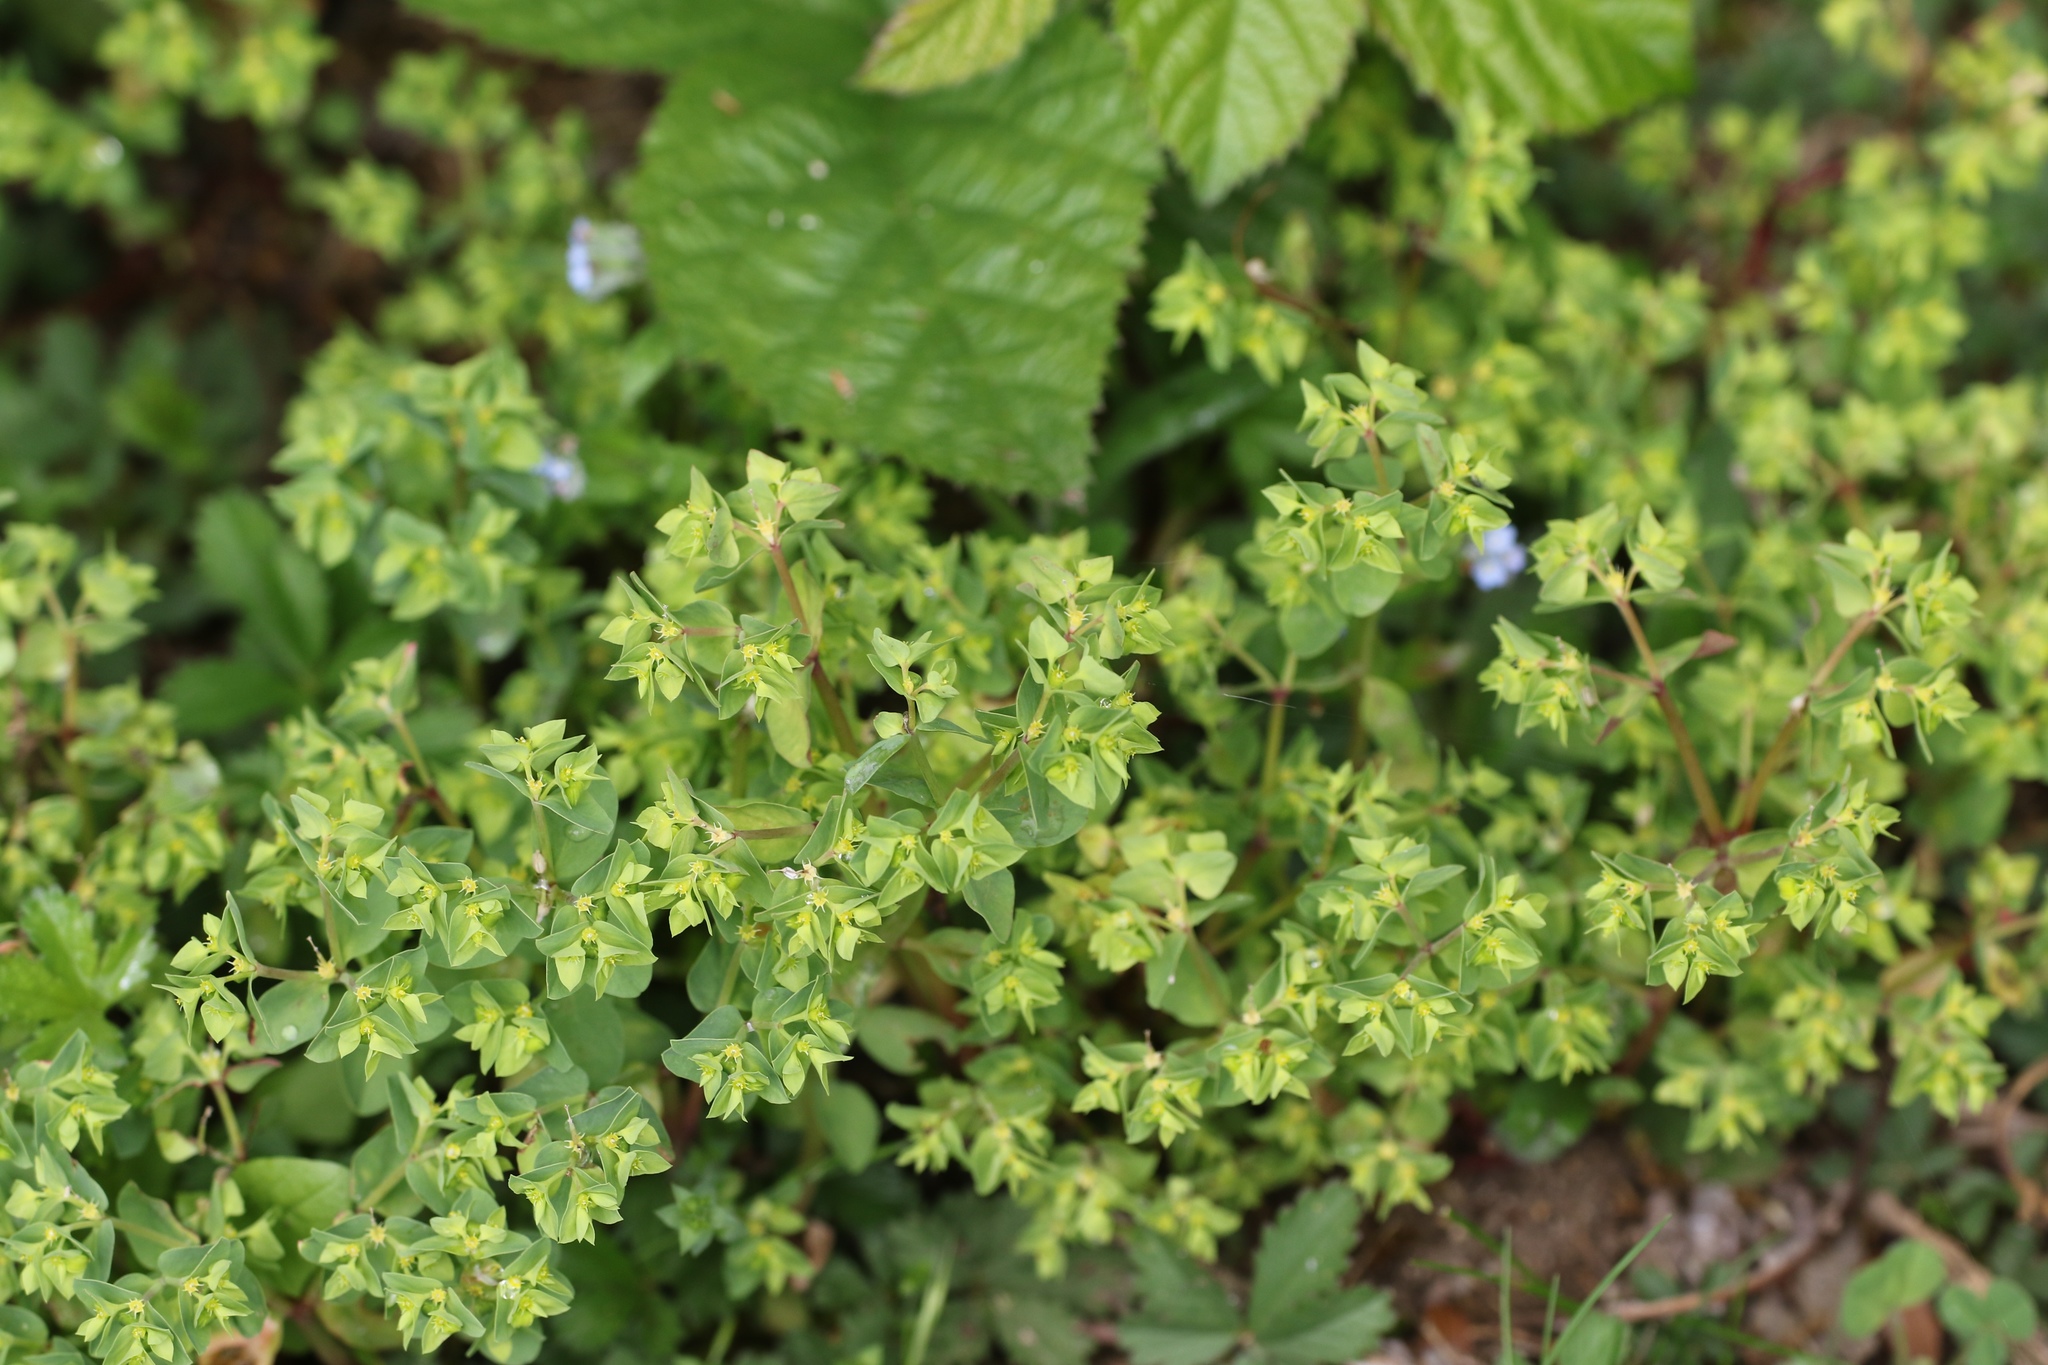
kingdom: Plantae
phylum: Tracheophyta
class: Magnoliopsida
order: Malpighiales
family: Euphorbiaceae
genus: Euphorbia
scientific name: Euphorbia peplus
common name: Petty spurge
